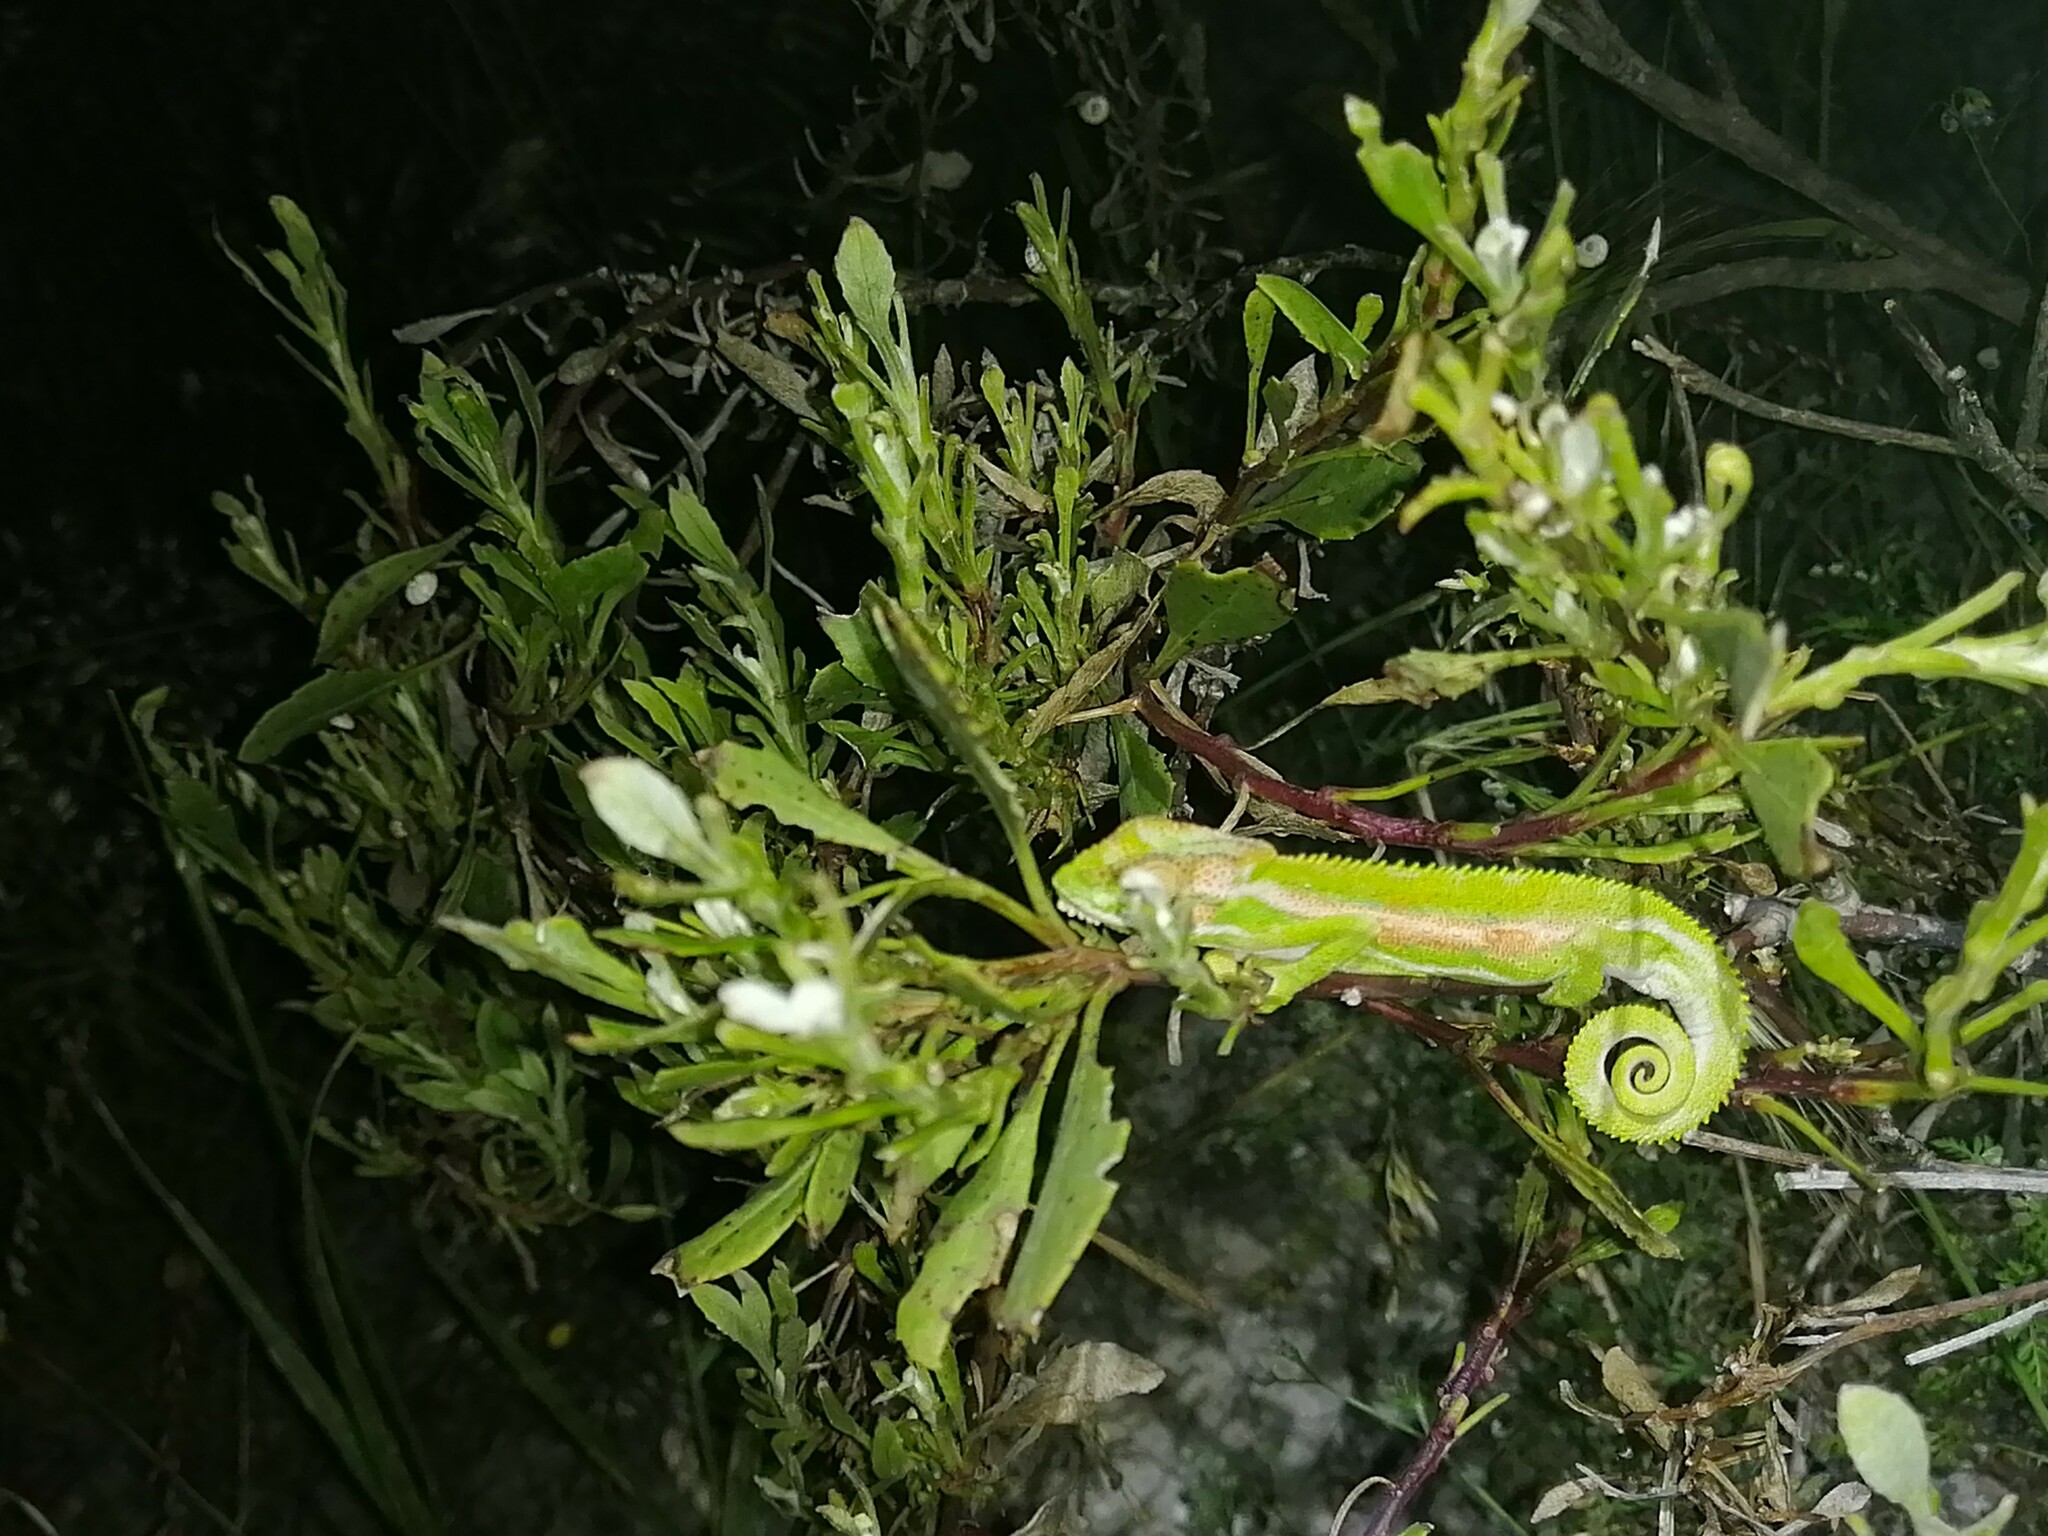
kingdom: Animalia
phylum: Chordata
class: Squamata
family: Chamaeleonidae
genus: Bradypodion
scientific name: Bradypodion pumilum
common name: Cape dwarf chameleon
